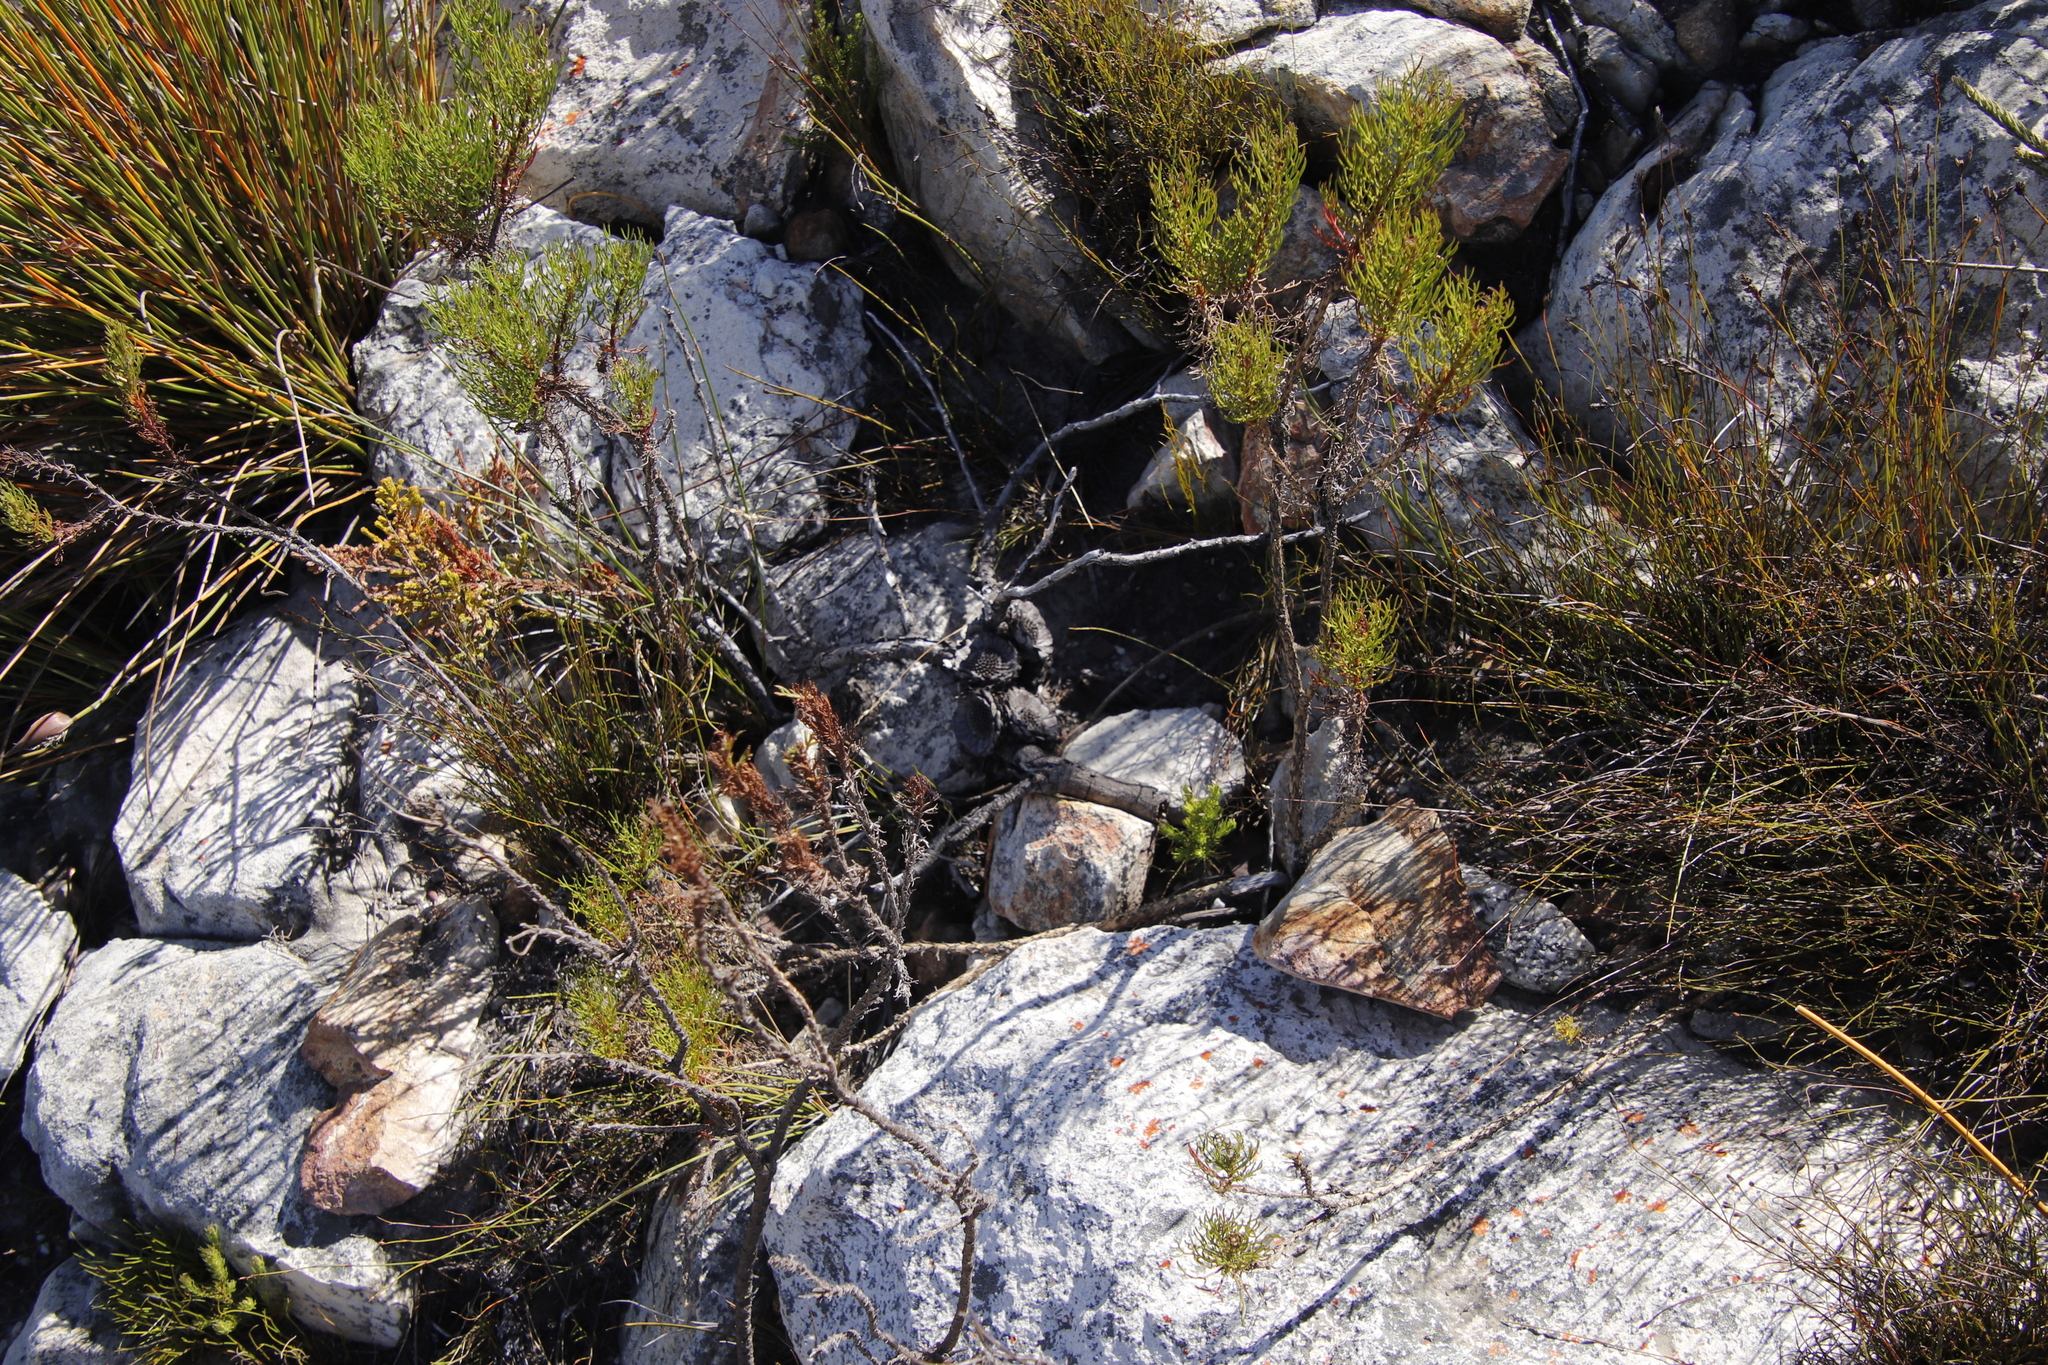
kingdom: Plantae
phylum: Tracheophyta
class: Magnoliopsida
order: Proteales
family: Proteaceae
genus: Protea
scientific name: Protea amplexicaulis
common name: Clasping-leaf sugarbush
